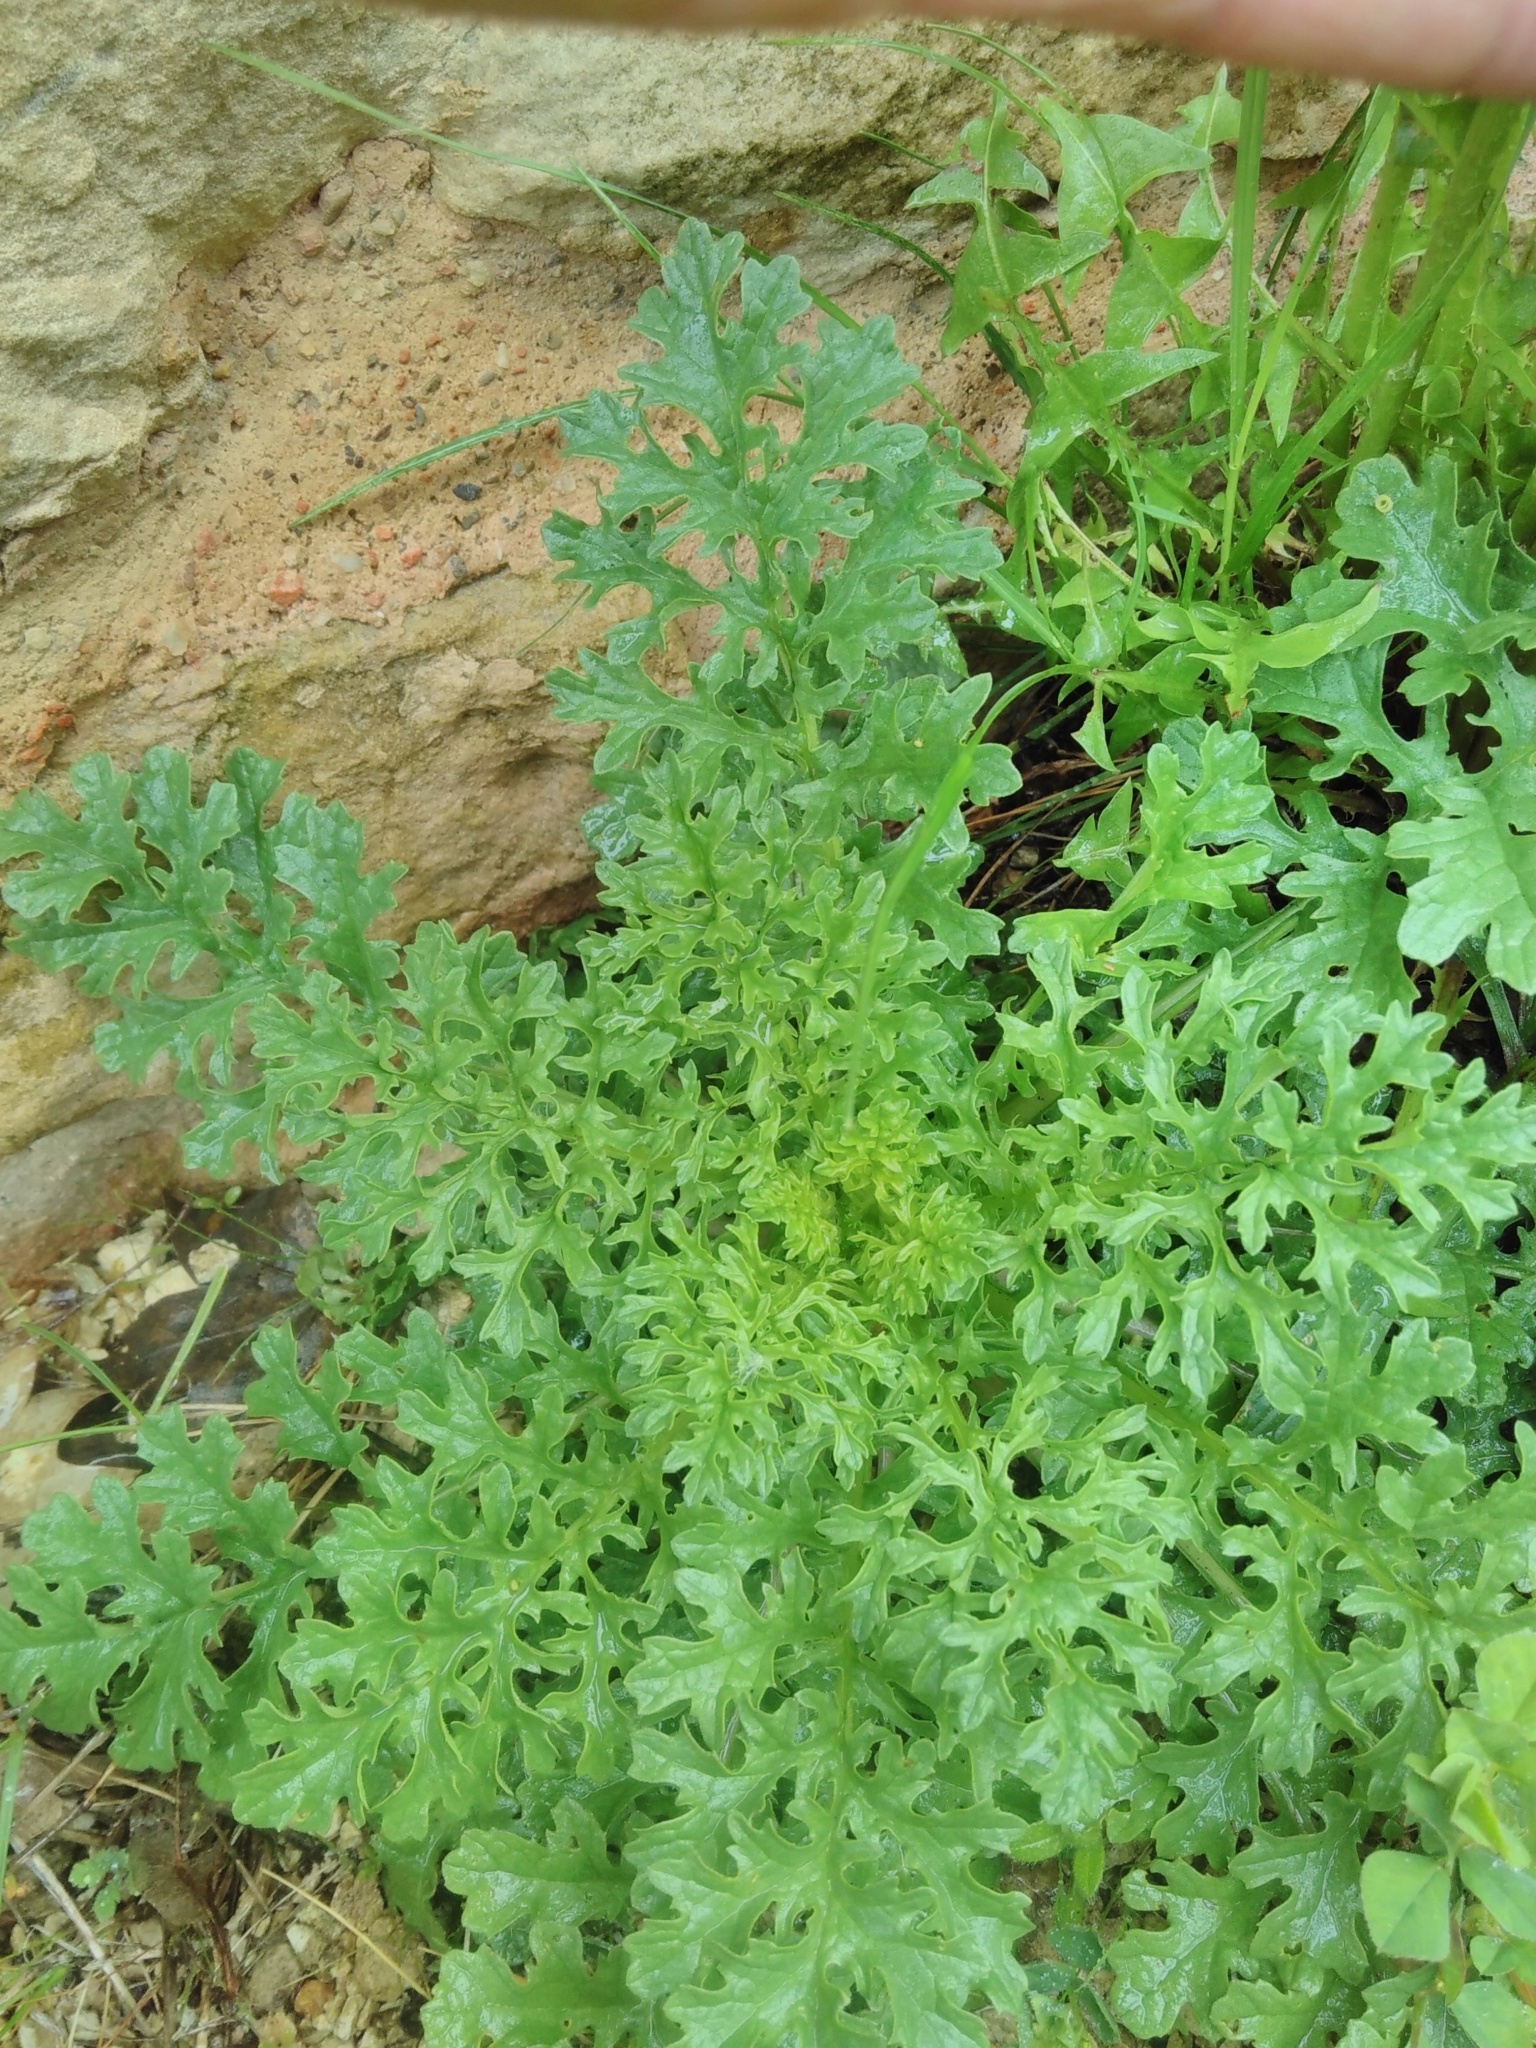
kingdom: Plantae
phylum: Tracheophyta
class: Magnoliopsida
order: Asterales
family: Asteraceae
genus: Jacobaea
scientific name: Jacobaea vulgaris
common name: Stinking willie
